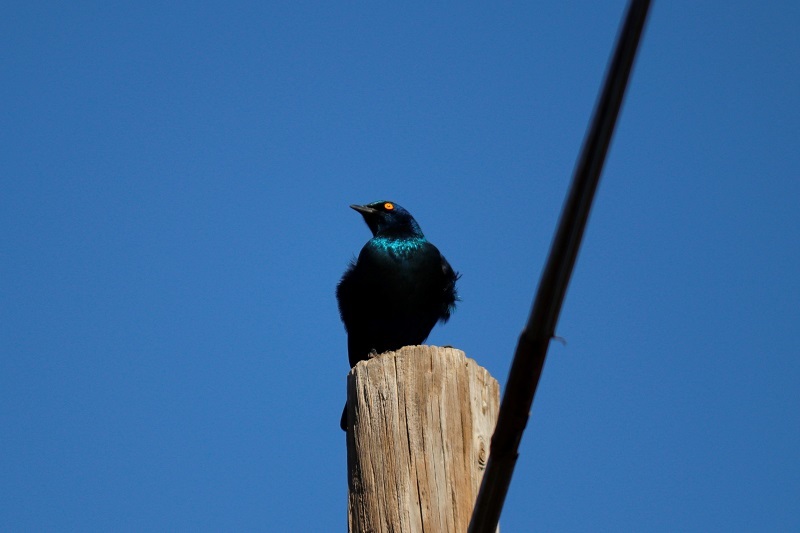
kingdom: Animalia
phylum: Chordata
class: Aves
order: Passeriformes
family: Sturnidae
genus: Lamprotornis
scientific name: Lamprotornis nitens
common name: Cape starling
